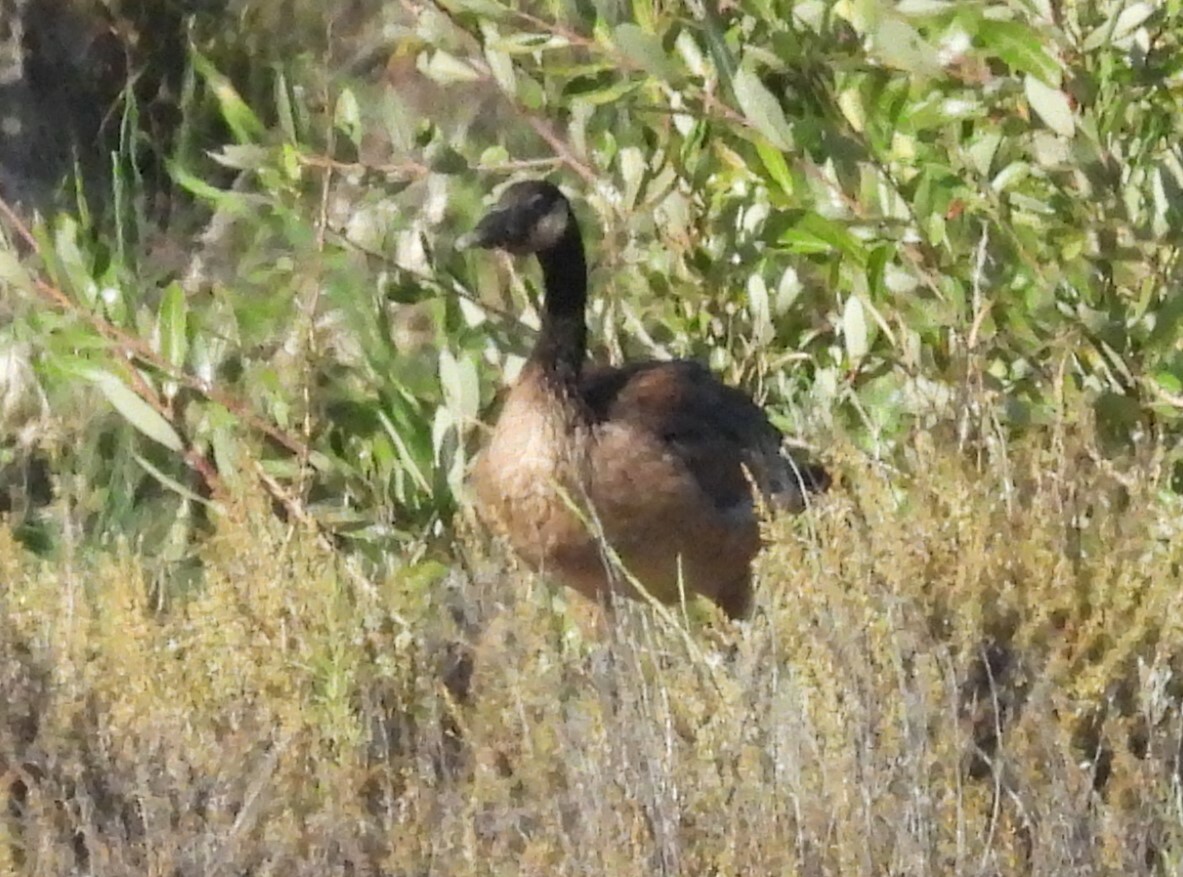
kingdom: Animalia
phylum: Chordata
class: Aves
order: Anseriformes
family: Anatidae
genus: Branta
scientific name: Branta canadensis
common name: Canada goose
